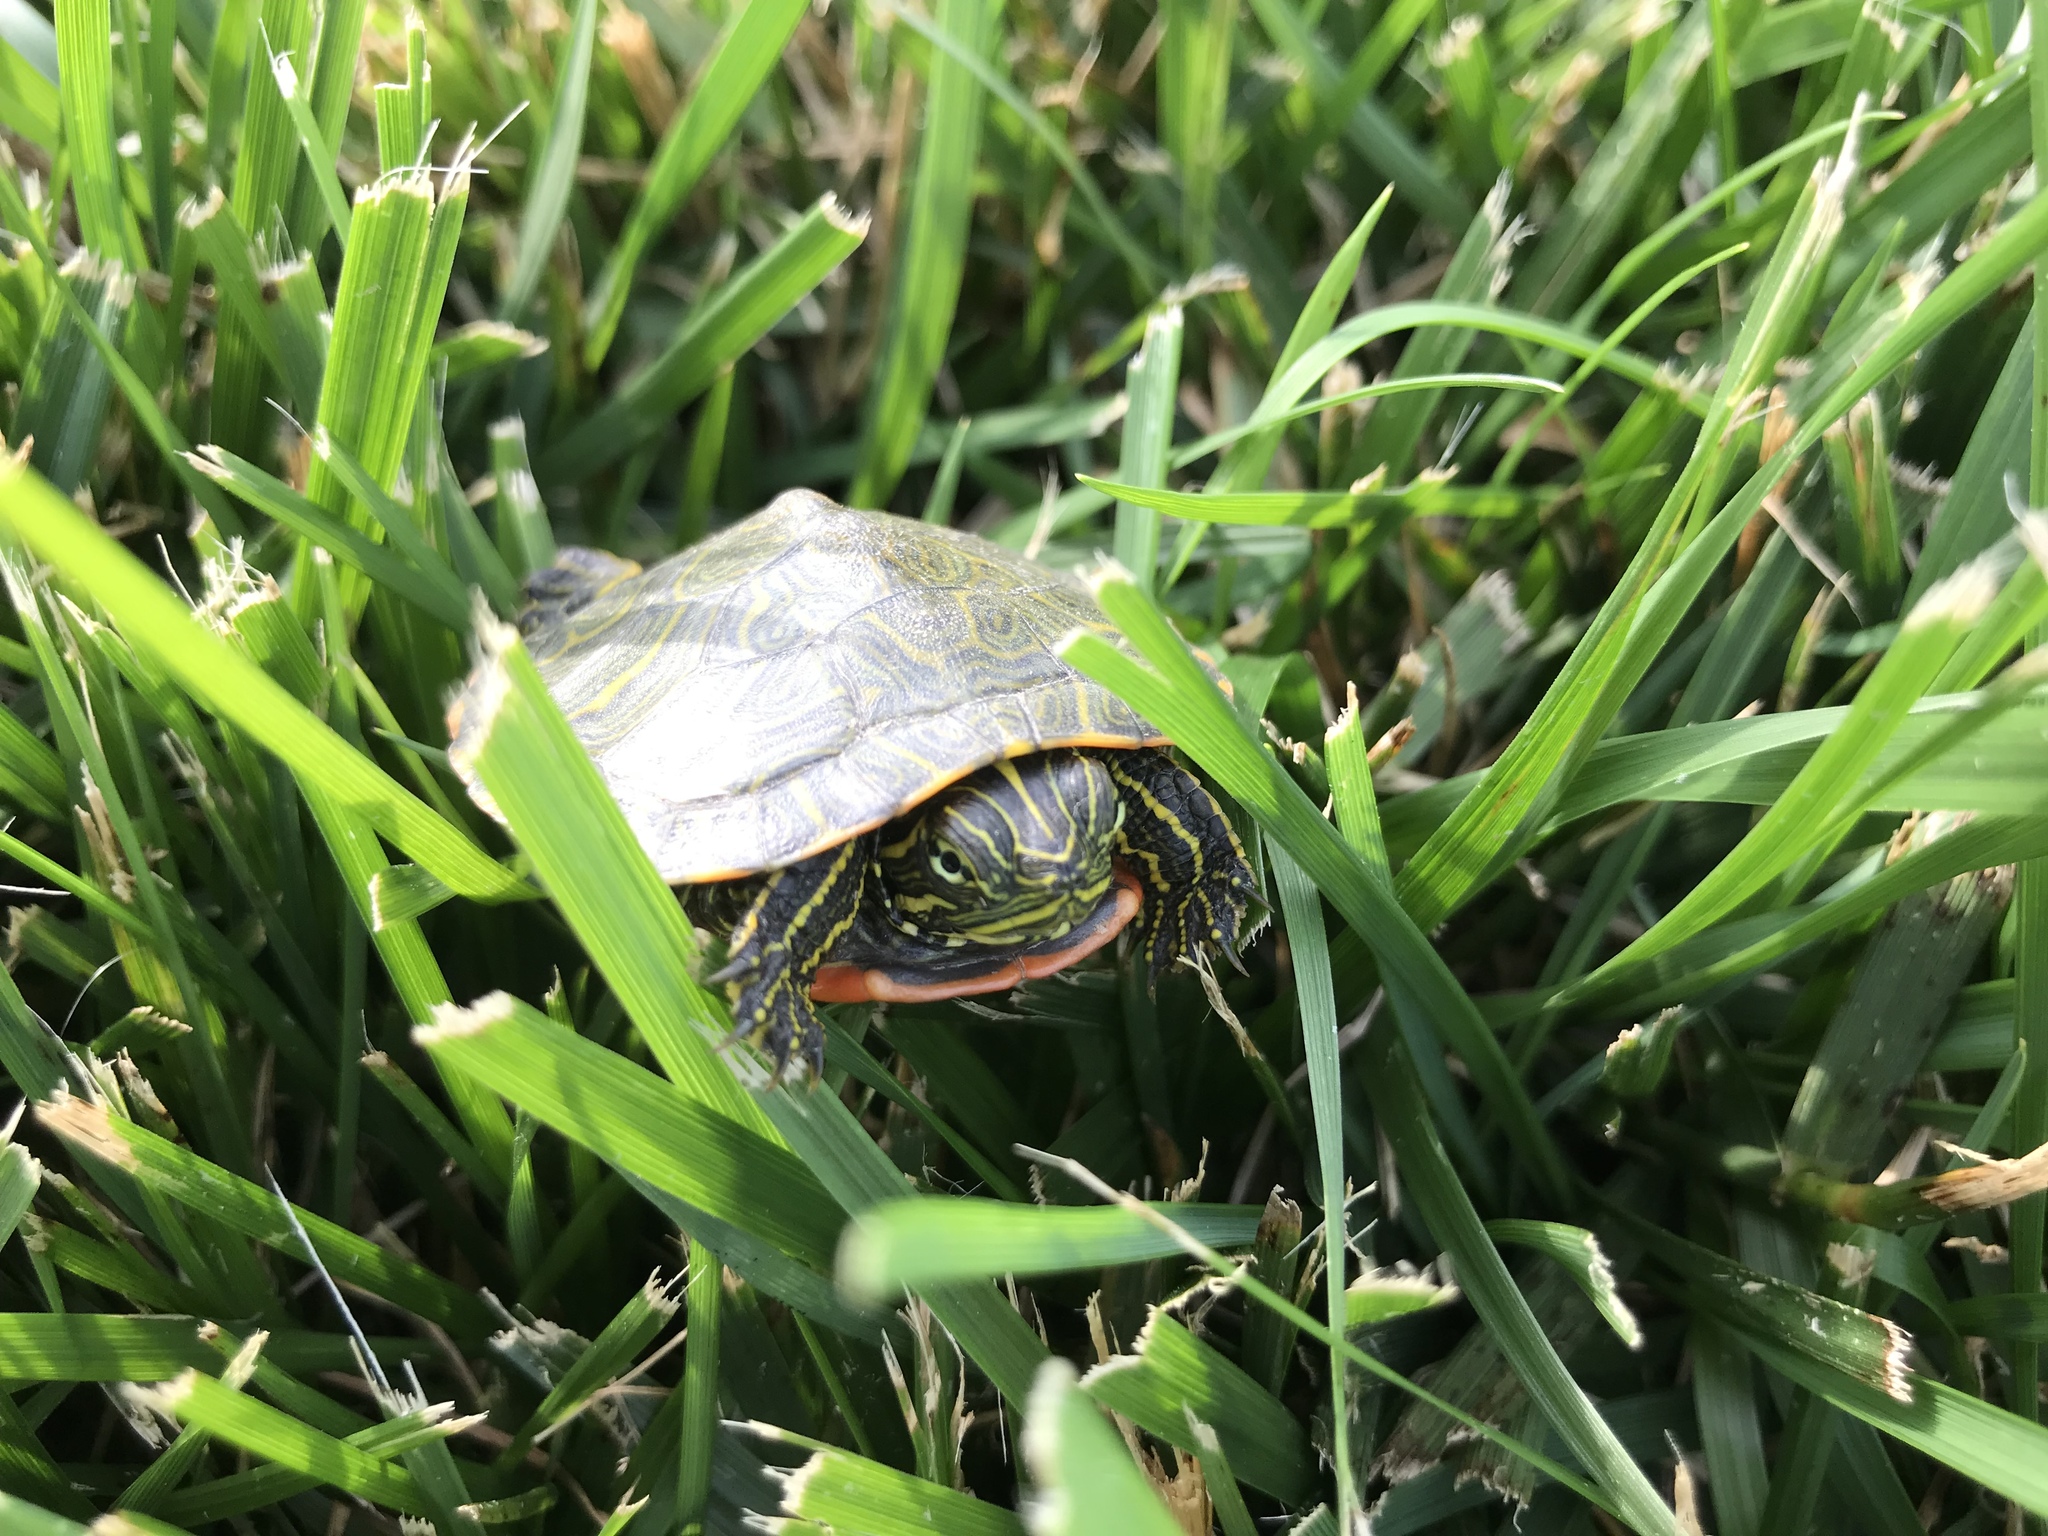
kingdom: Animalia
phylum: Chordata
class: Testudines
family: Emydidae
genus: Pseudemys
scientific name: Pseudemys rubriventris
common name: American red-bellied turtle
